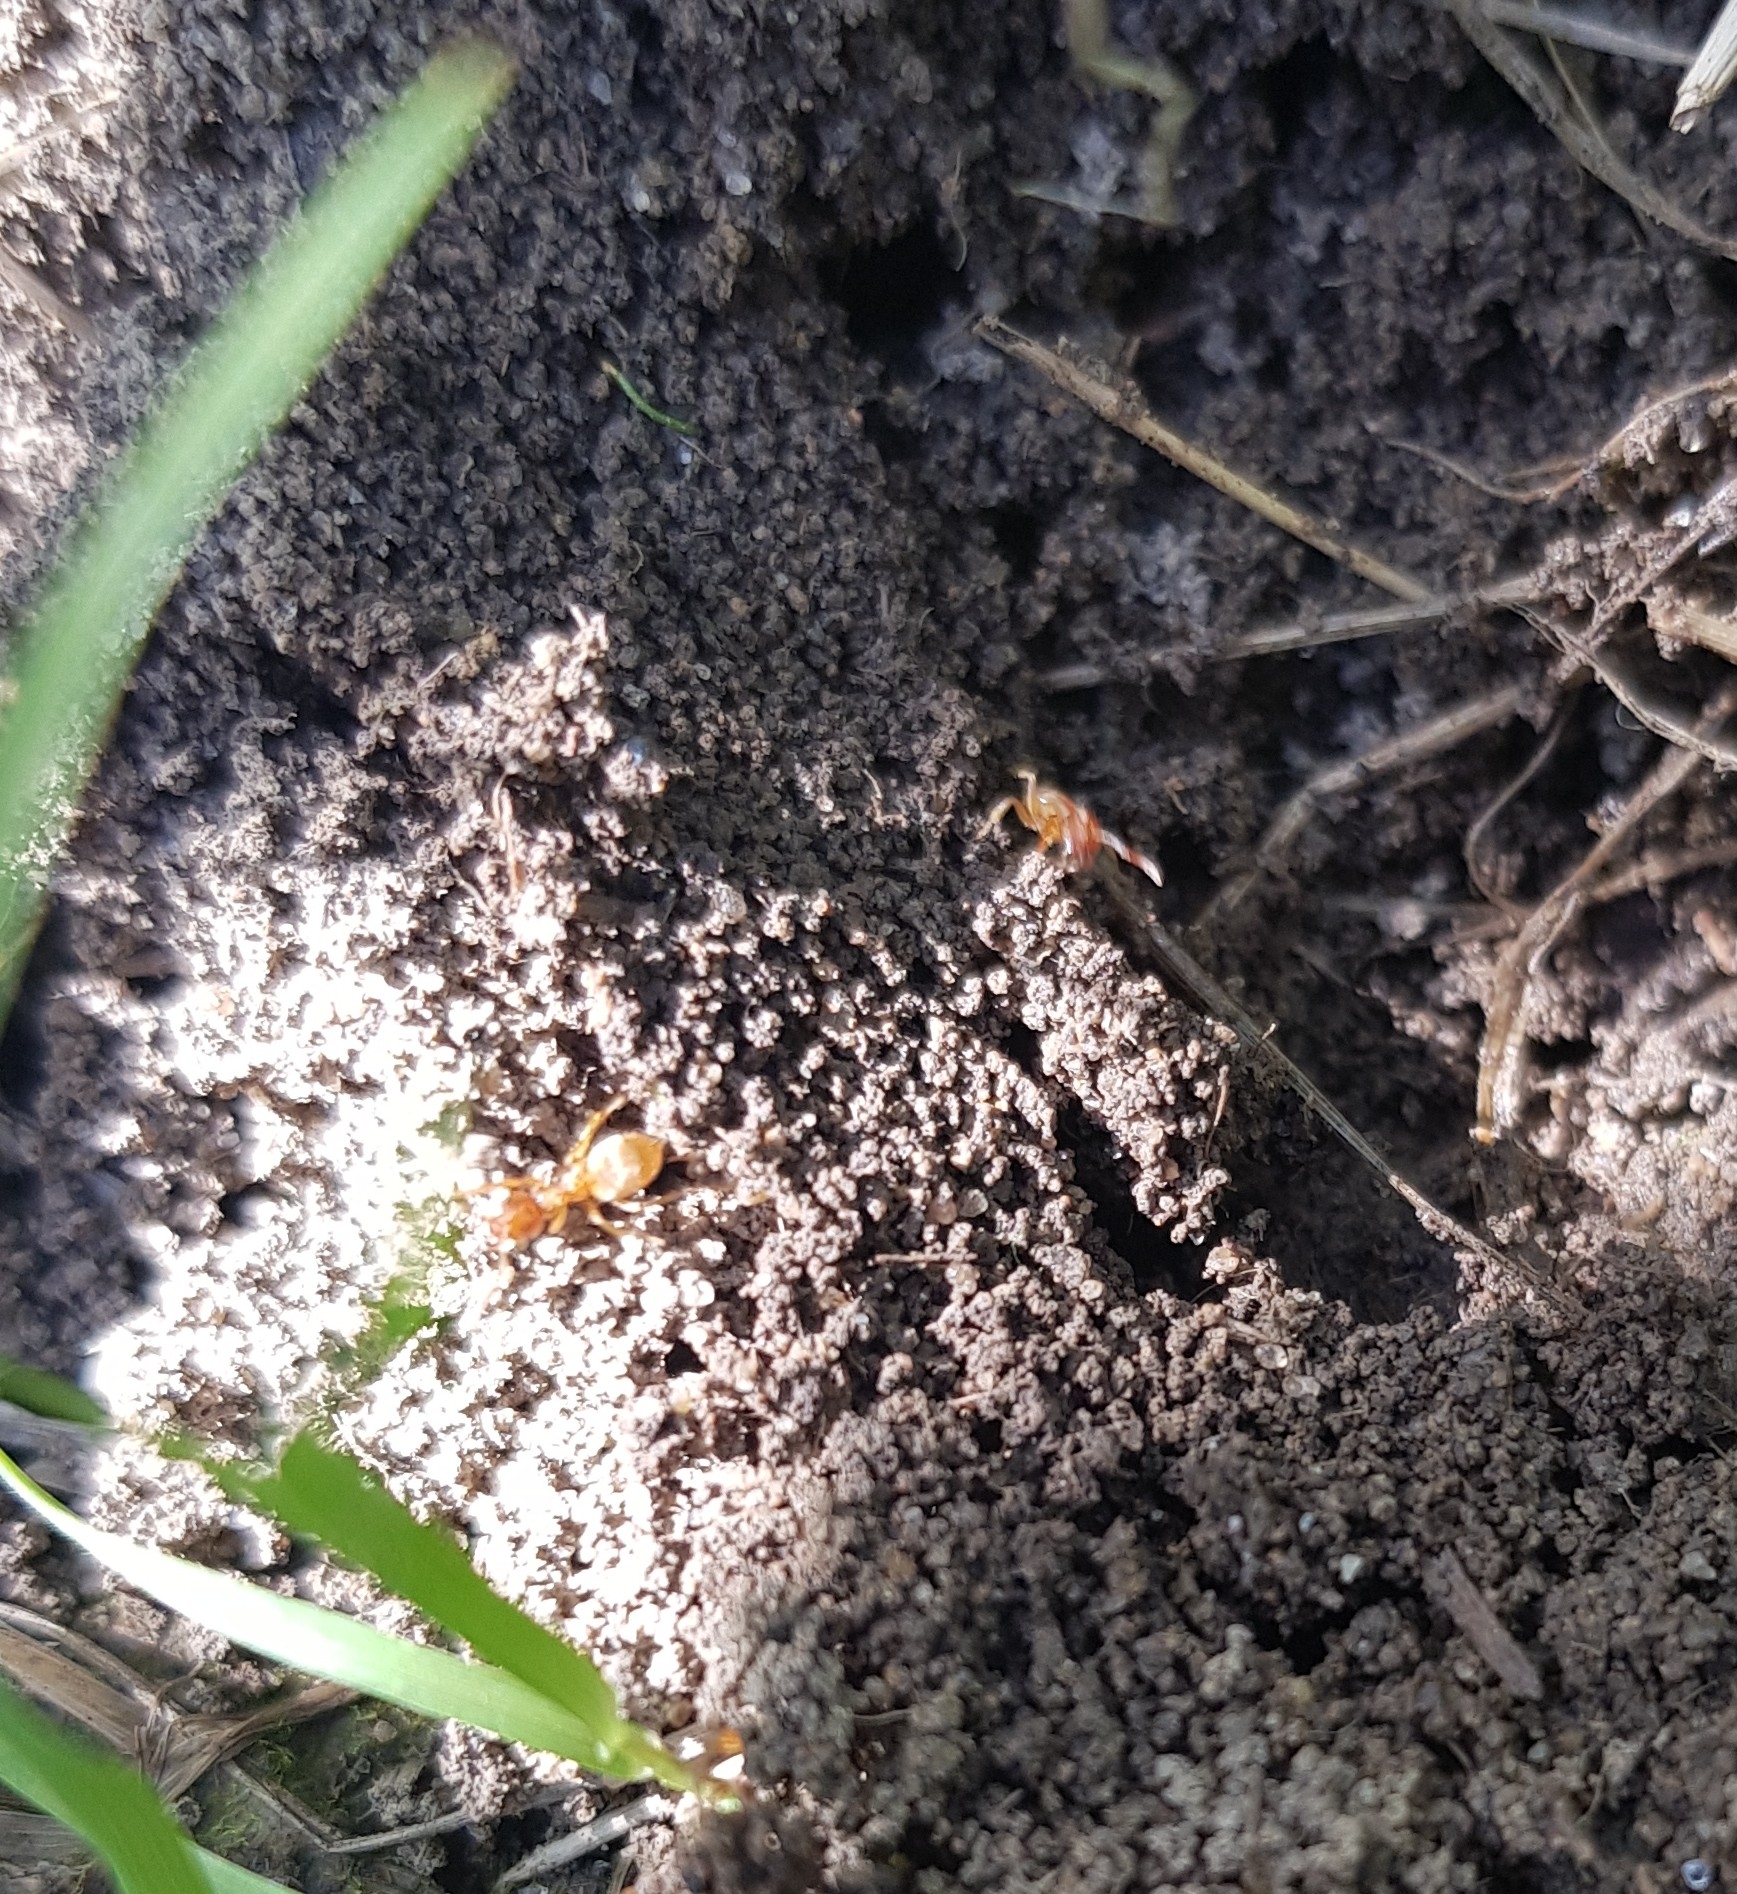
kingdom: Animalia
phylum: Arthropoda
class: Insecta
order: Hymenoptera
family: Formicidae
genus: Lasius
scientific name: Lasius flavus
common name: Blond field ant
